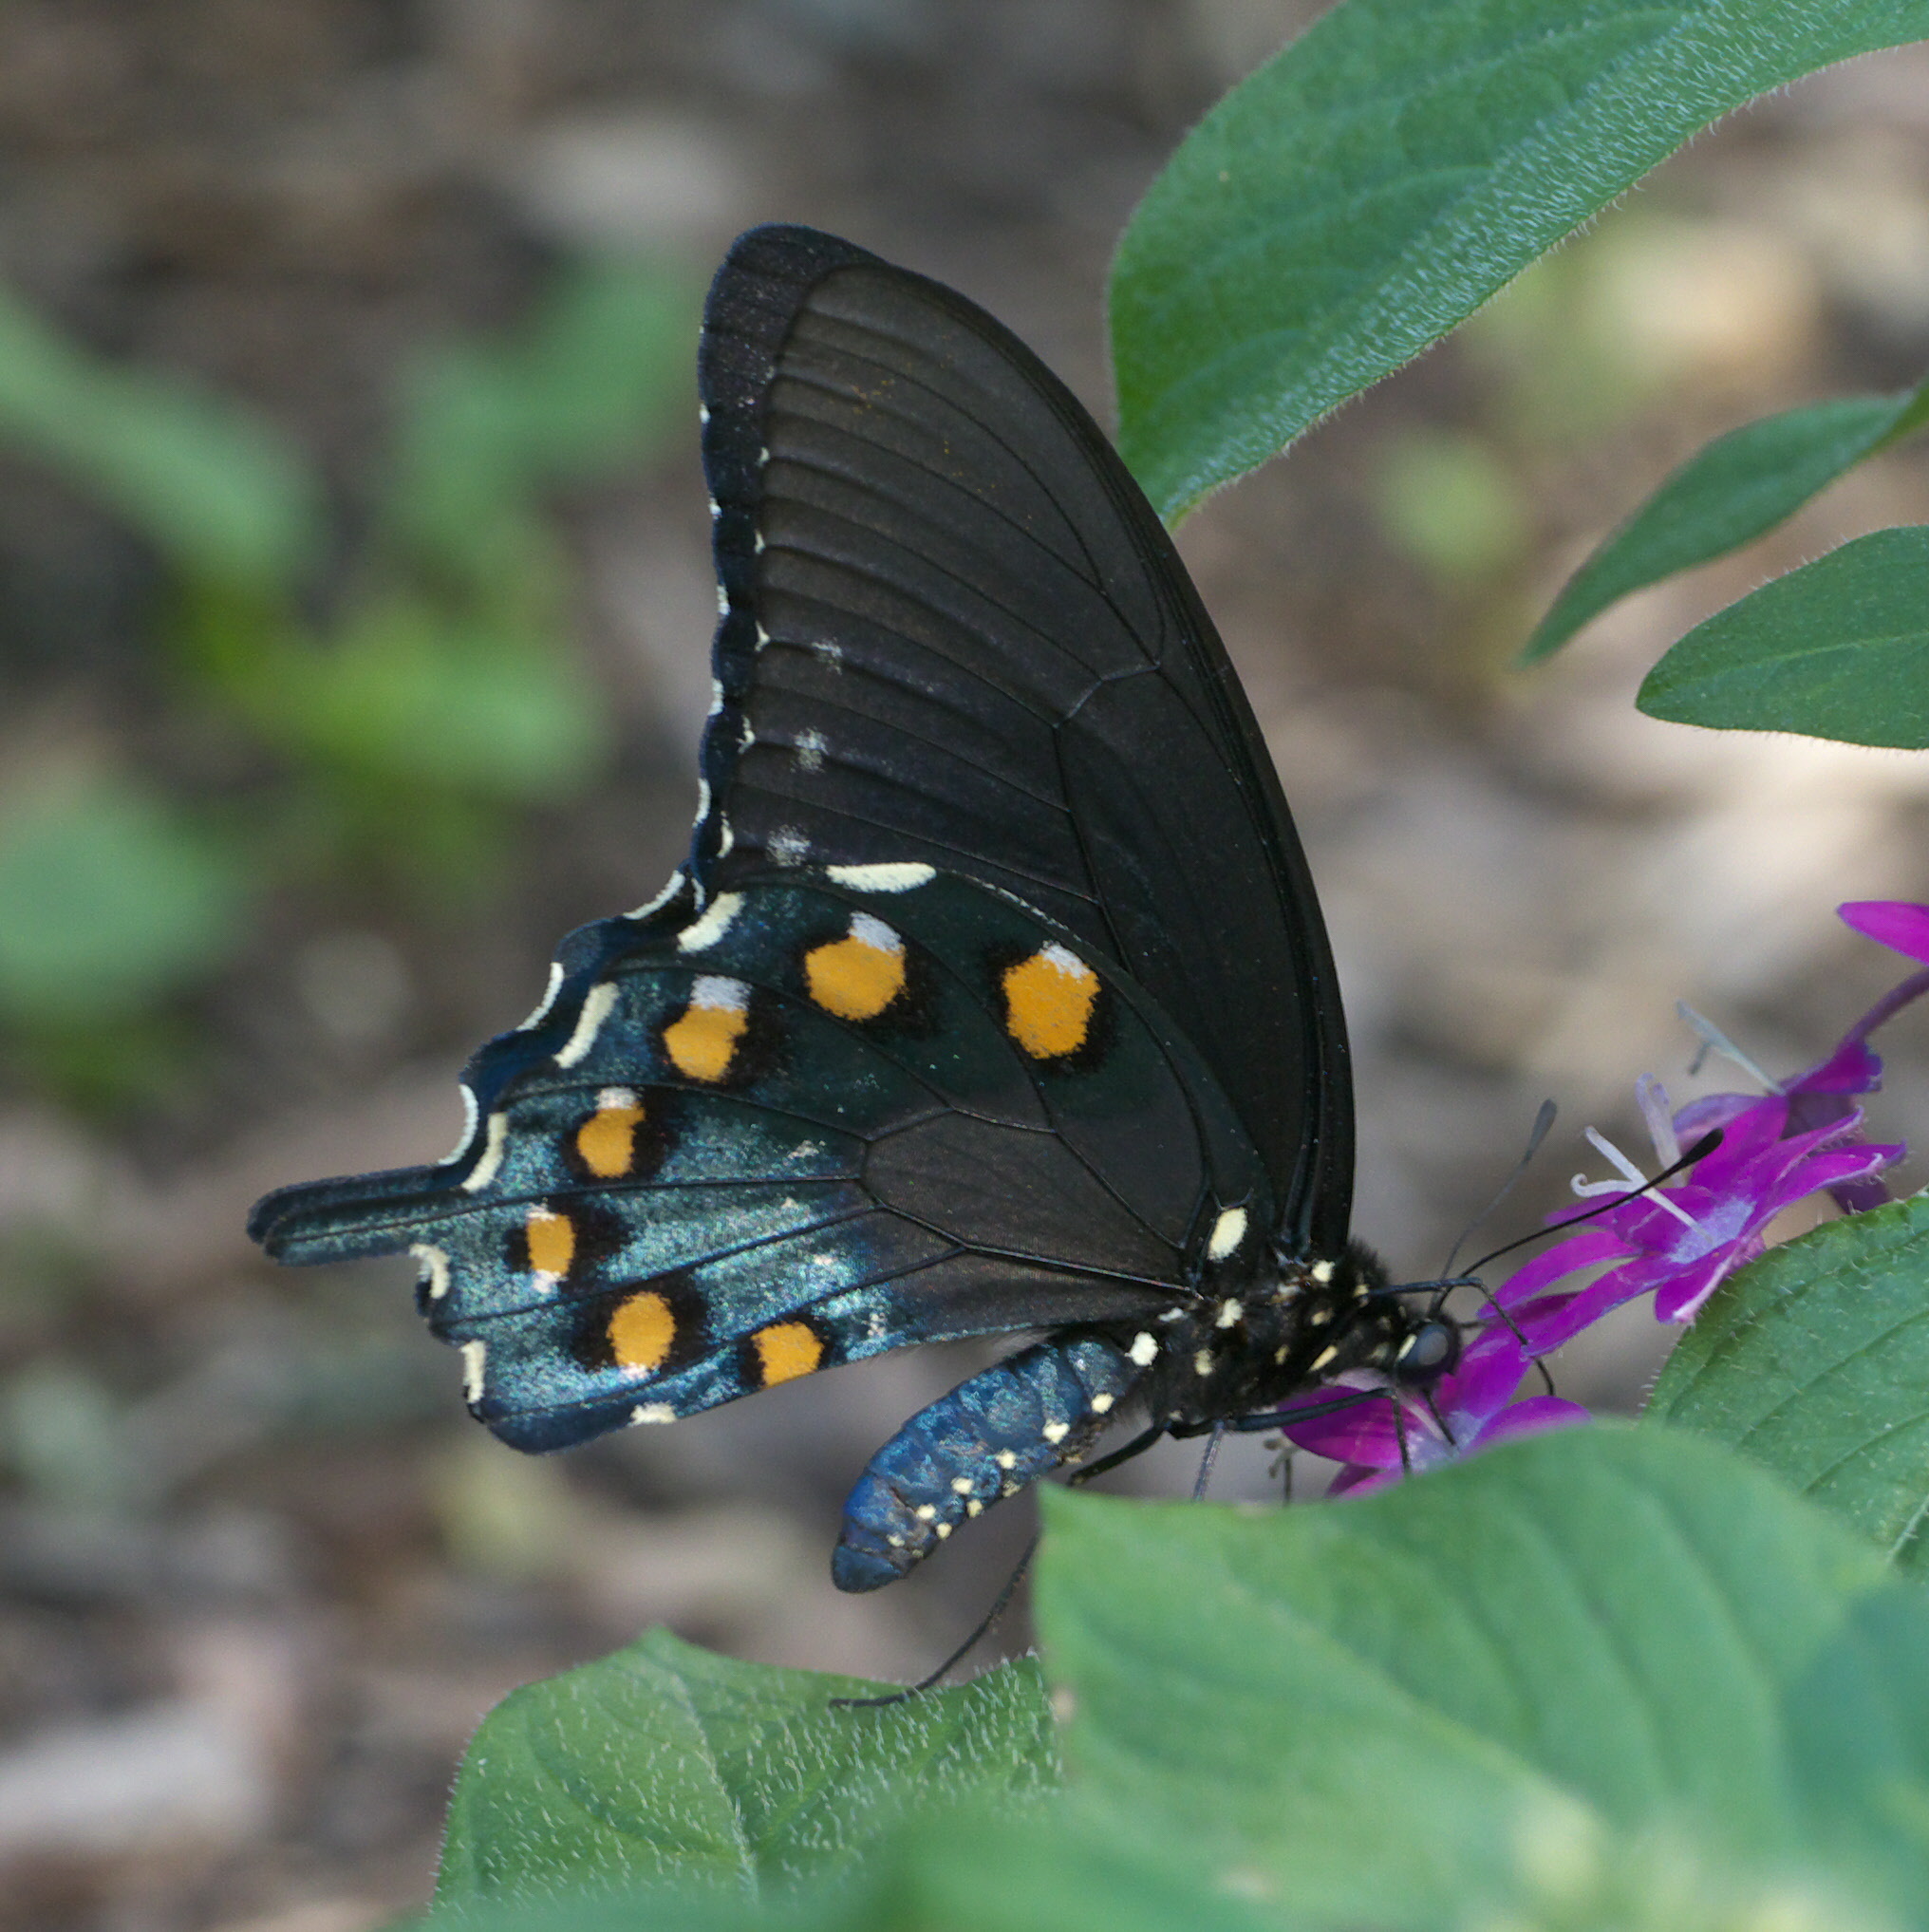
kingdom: Animalia
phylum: Arthropoda
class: Insecta
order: Lepidoptera
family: Papilionidae
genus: Battus
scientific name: Battus philenor
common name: Pipevine swallowtail
